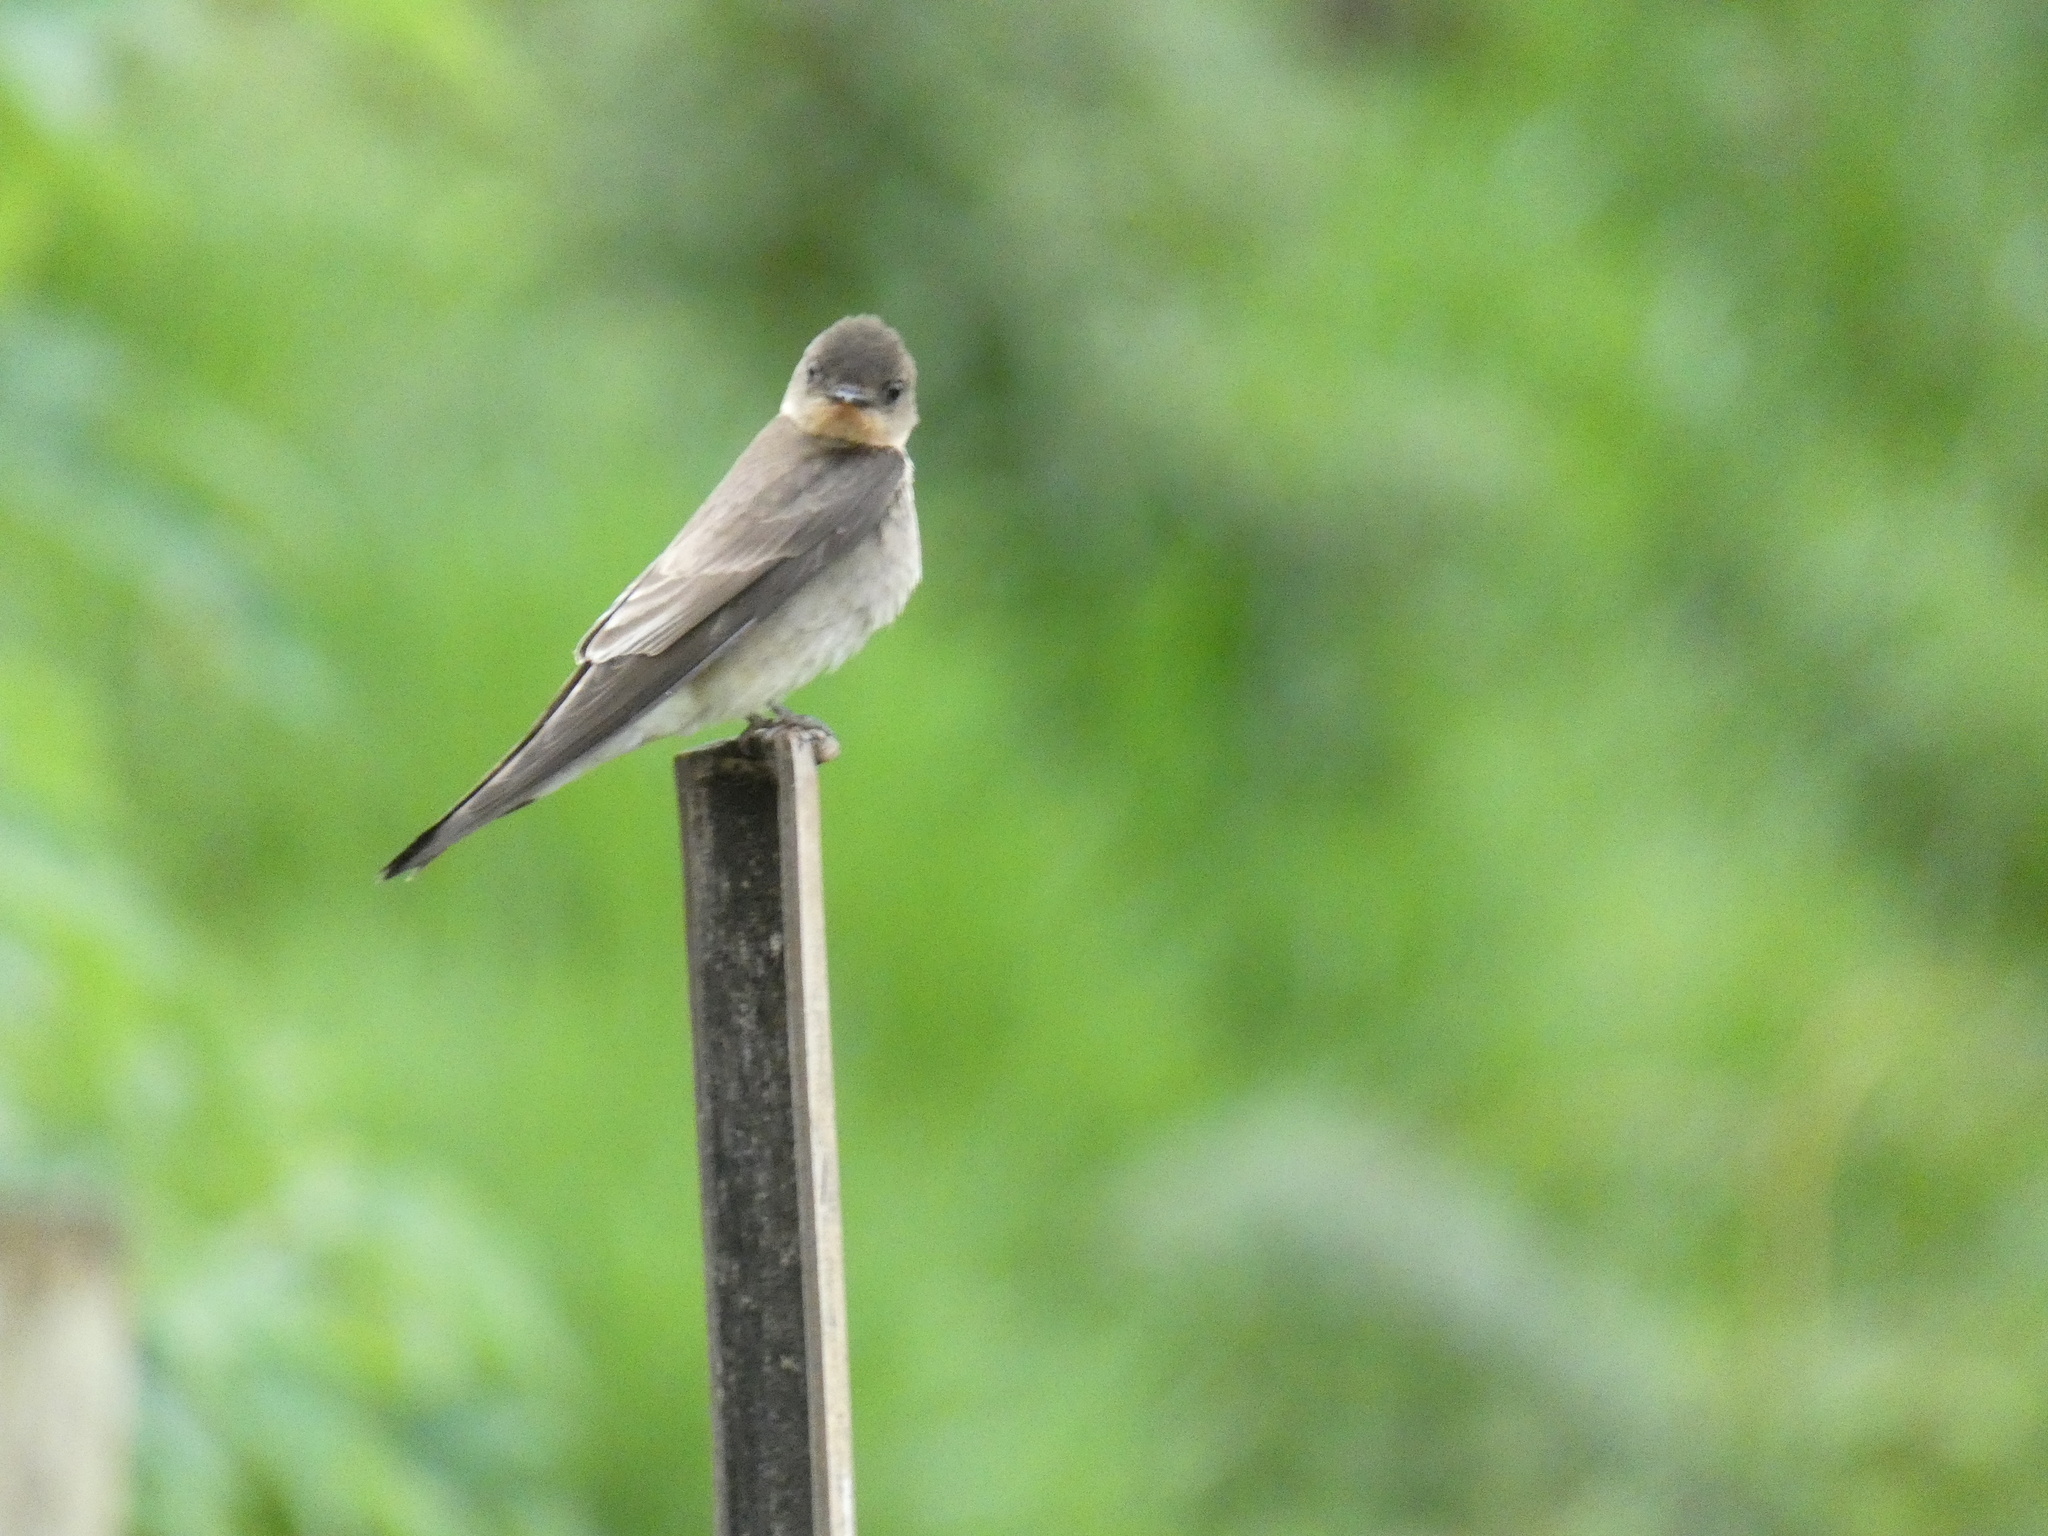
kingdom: Animalia
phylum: Chordata
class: Aves
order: Passeriformes
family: Hirundinidae
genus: Stelgidopteryx
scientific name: Stelgidopteryx ruficollis
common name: Southern rough-winged swallow
